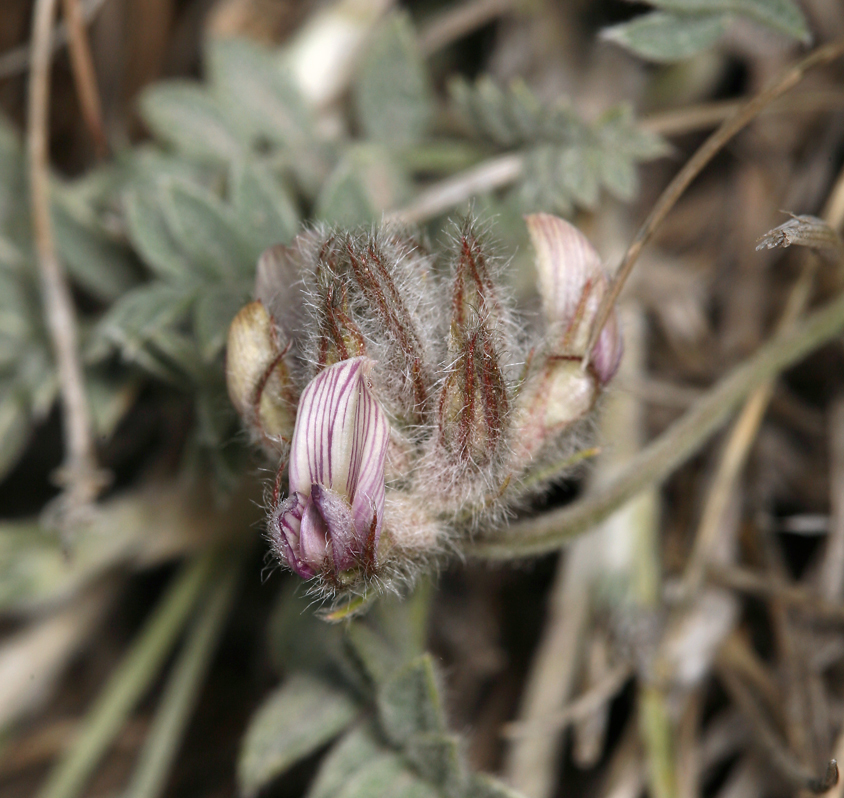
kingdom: Plantae
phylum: Tracheophyta
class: Magnoliopsida
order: Fabales
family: Fabaceae
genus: Astragalus
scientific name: Astragalus austiniae
